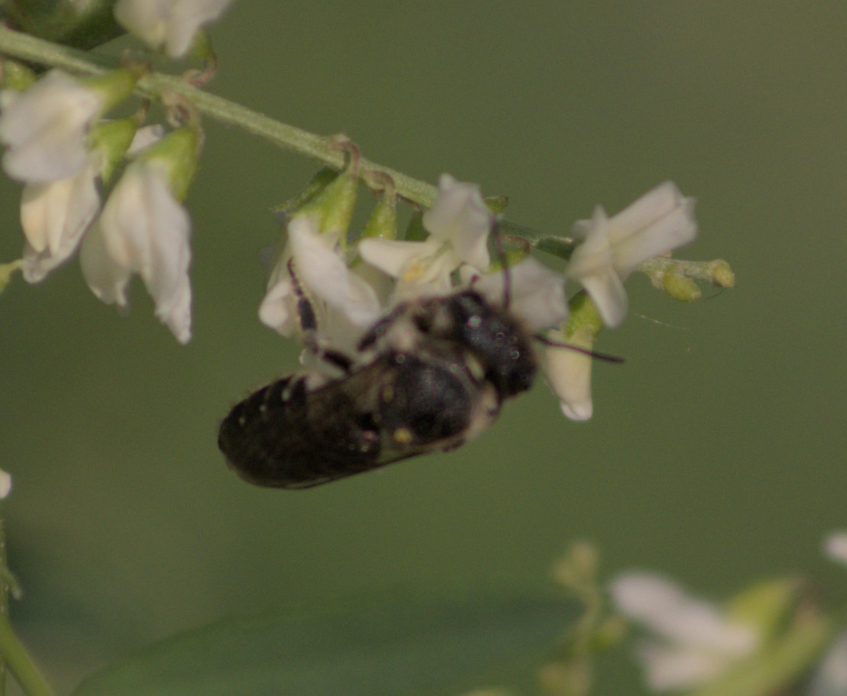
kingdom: Animalia
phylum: Arthropoda
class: Insecta
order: Hymenoptera
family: Megachilidae
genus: Megachile
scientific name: Megachile rotundata
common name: Alfalfa leafcutting bee
